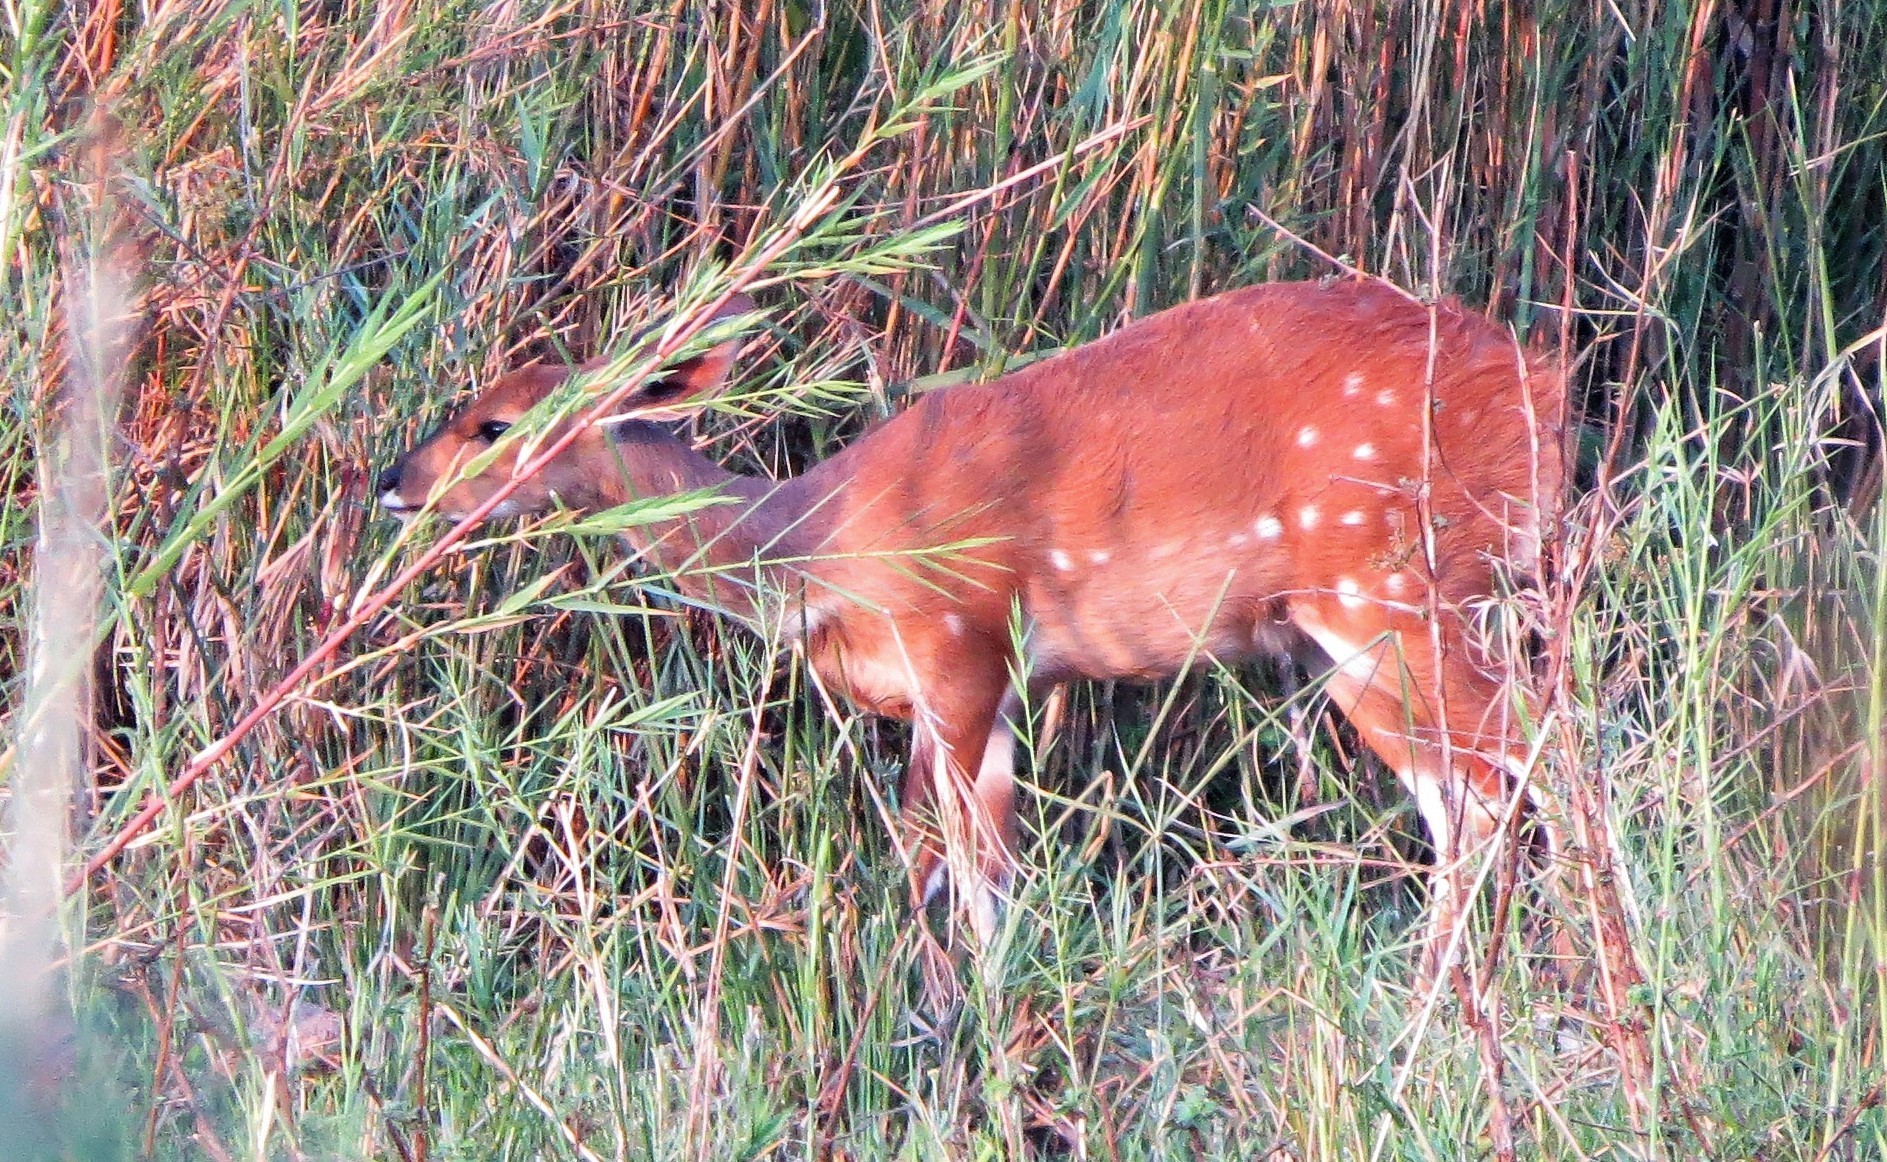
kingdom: Animalia
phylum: Chordata
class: Mammalia
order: Artiodactyla
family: Bovidae
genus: Tragelaphus
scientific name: Tragelaphus scriptus
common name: Bushbuck
